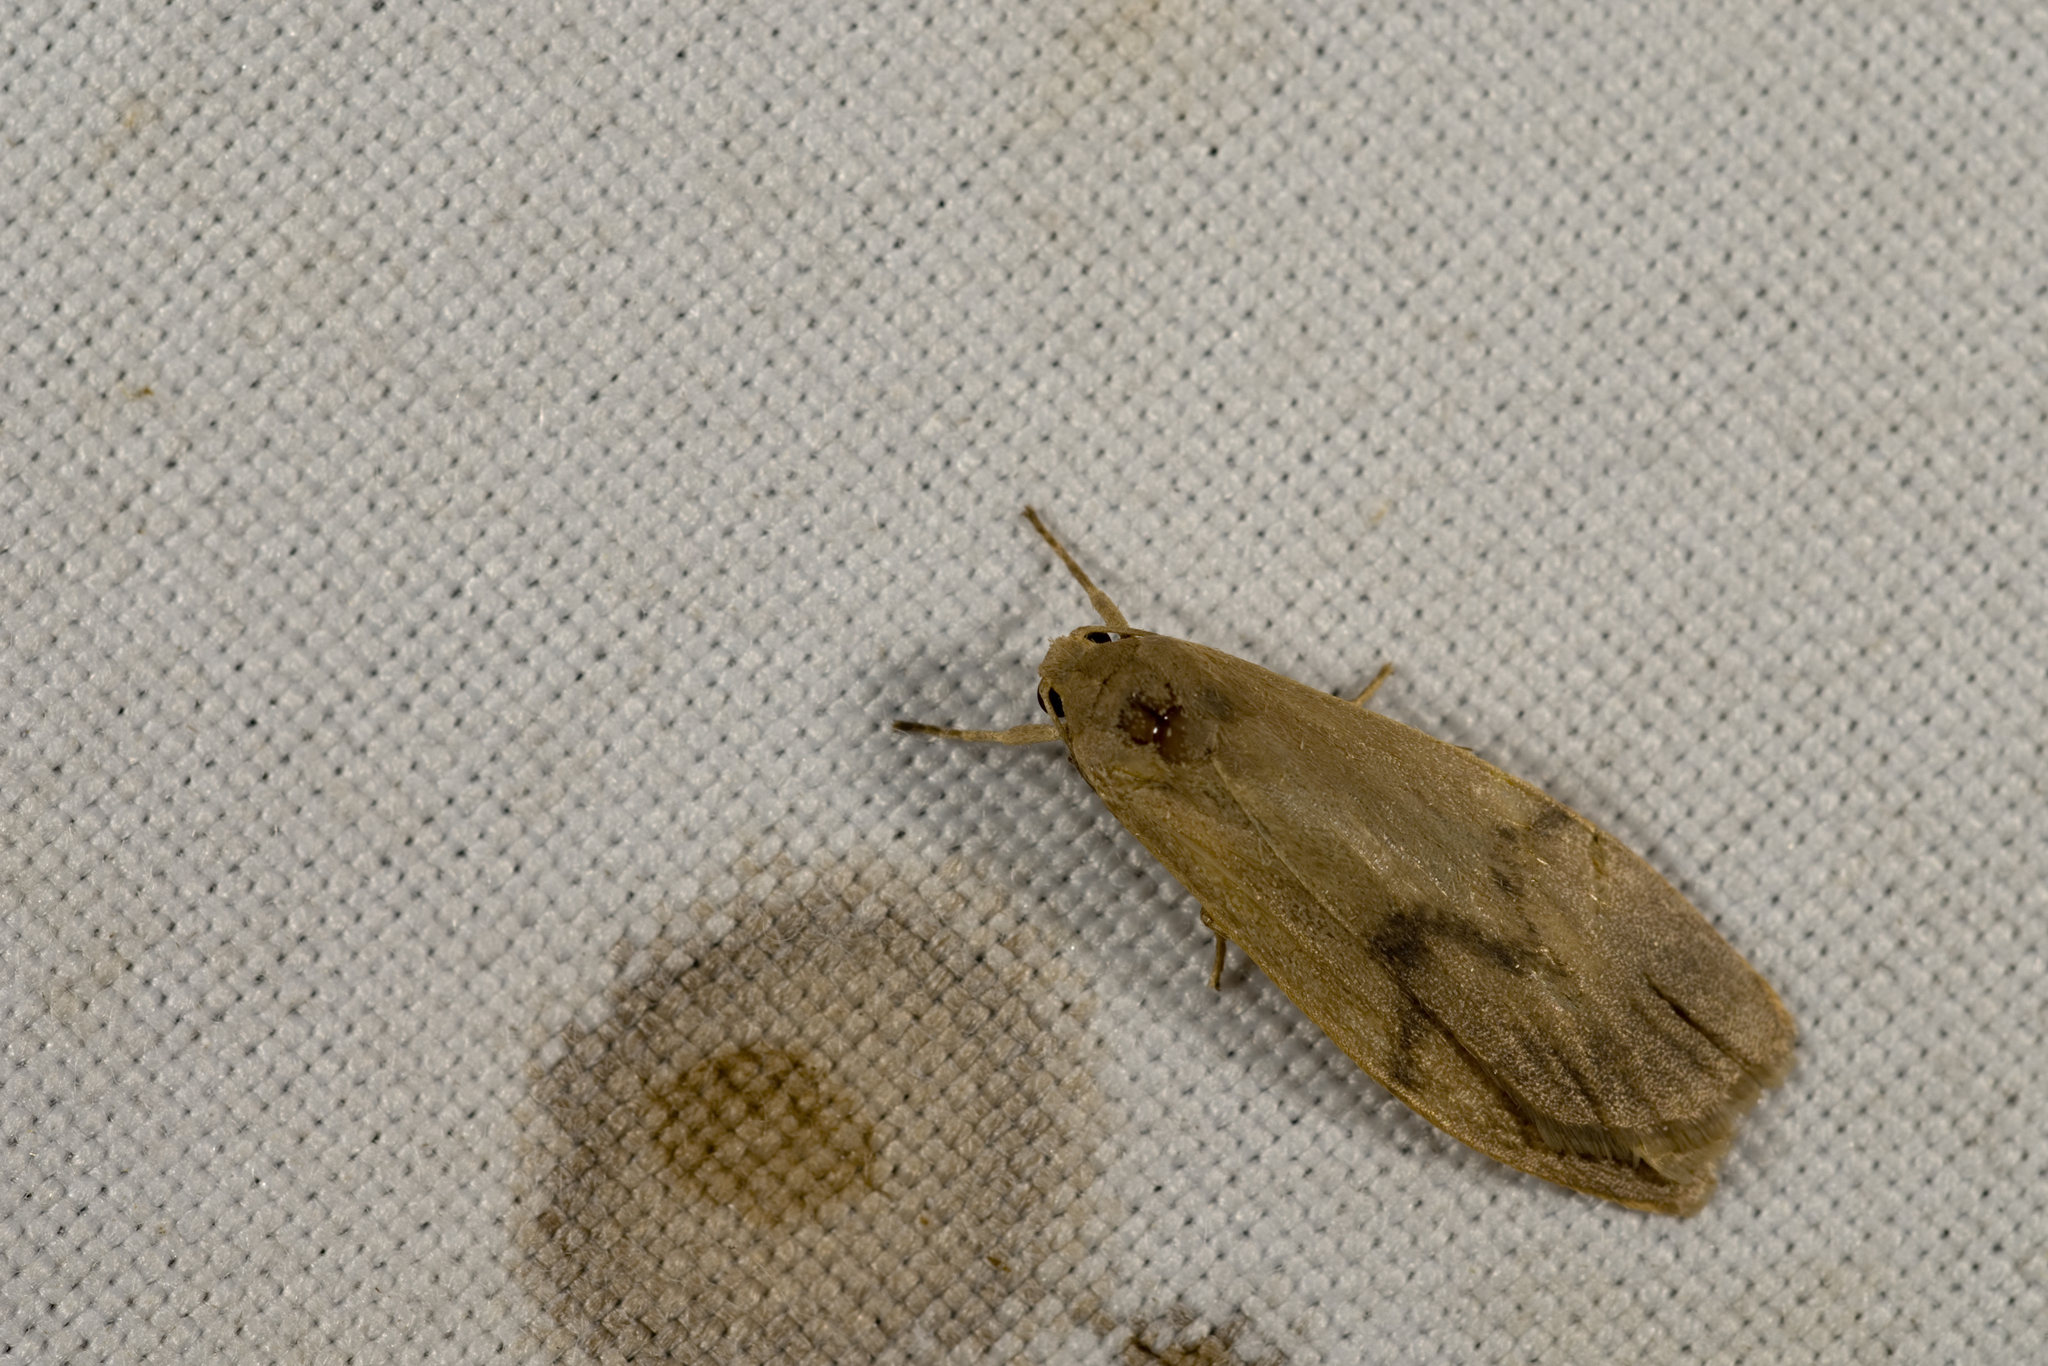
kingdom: Animalia
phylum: Arthropoda
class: Insecta
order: Lepidoptera
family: Erebidae
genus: Teuloma
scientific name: Teuloma tainebula
